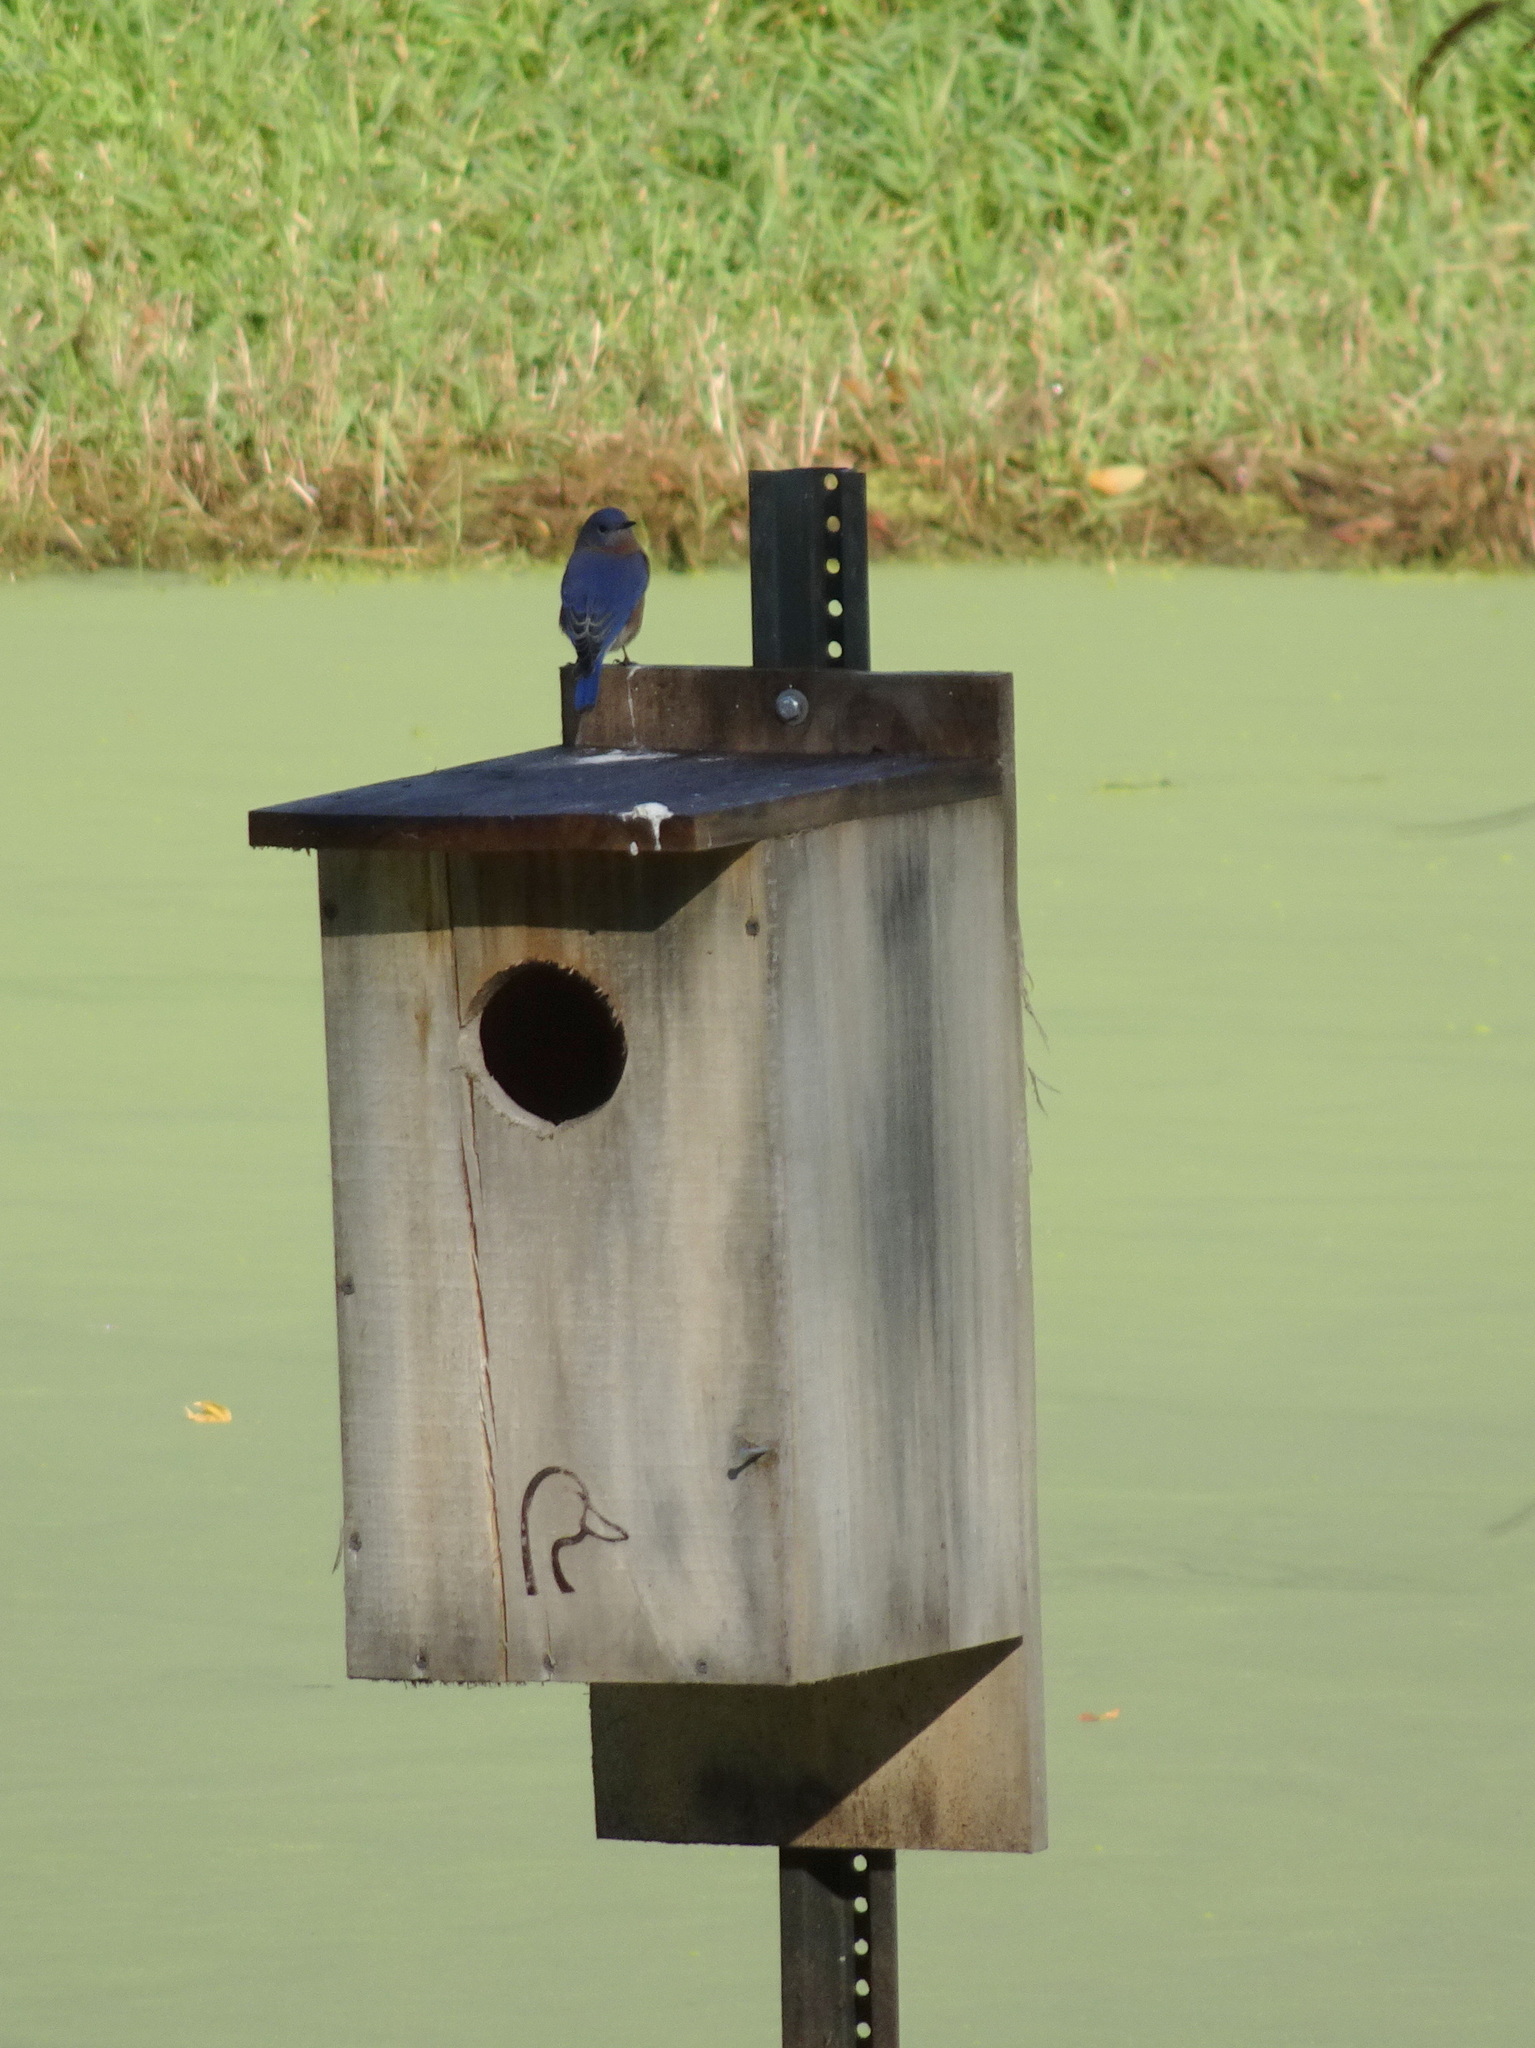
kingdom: Animalia
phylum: Chordata
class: Aves
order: Passeriformes
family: Turdidae
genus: Sialia
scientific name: Sialia sialis
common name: Eastern bluebird
